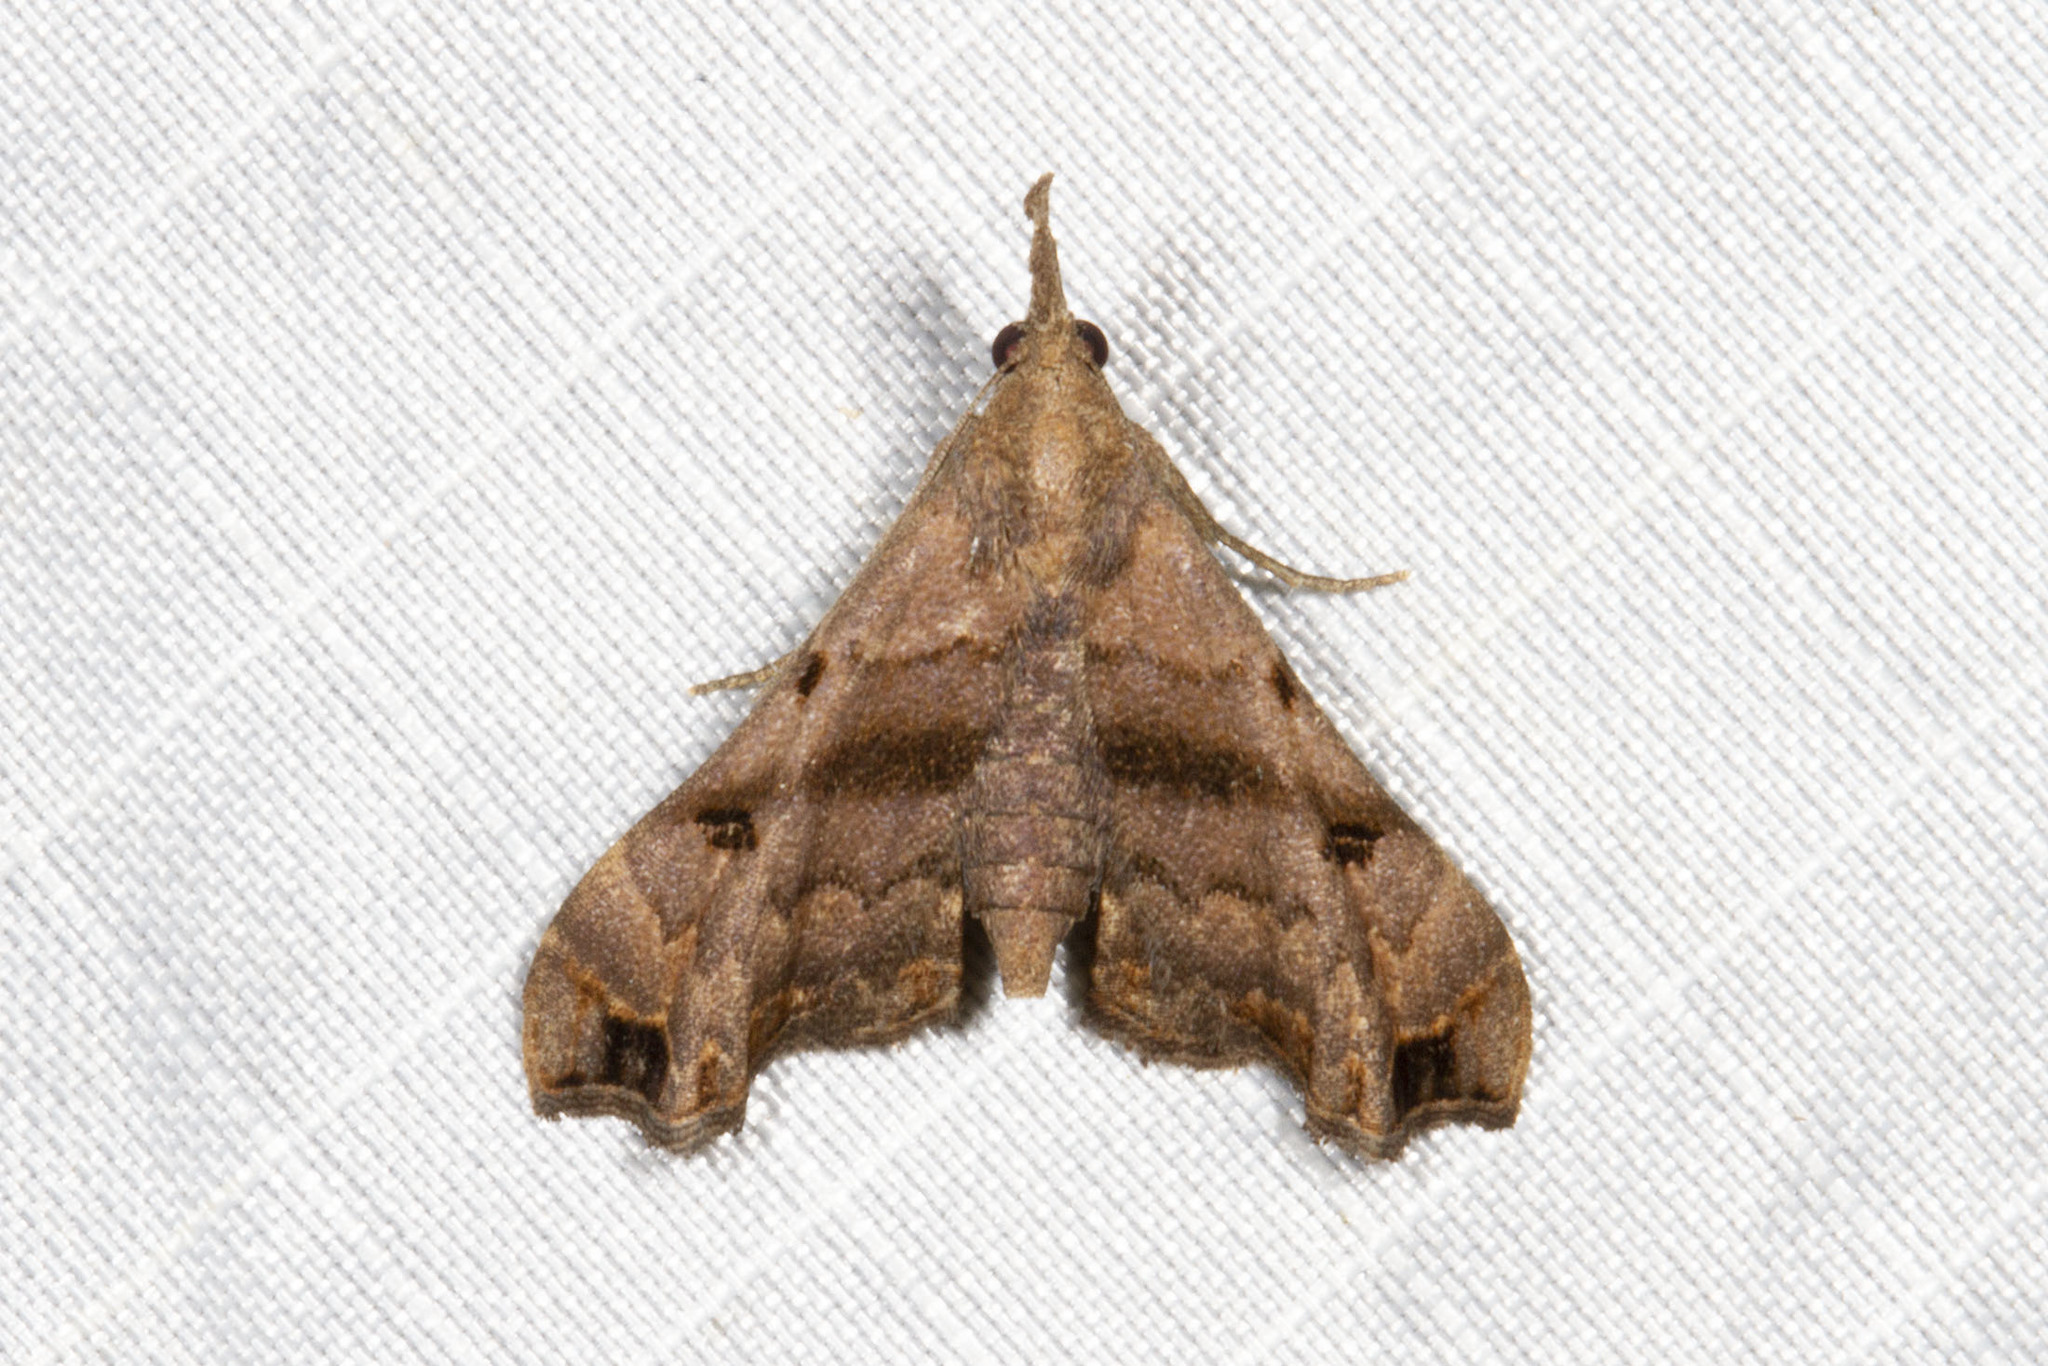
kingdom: Animalia
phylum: Arthropoda
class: Insecta
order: Lepidoptera
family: Erebidae
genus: Palthis
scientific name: Palthis asopialis
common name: Faint-spotted palthis moth
